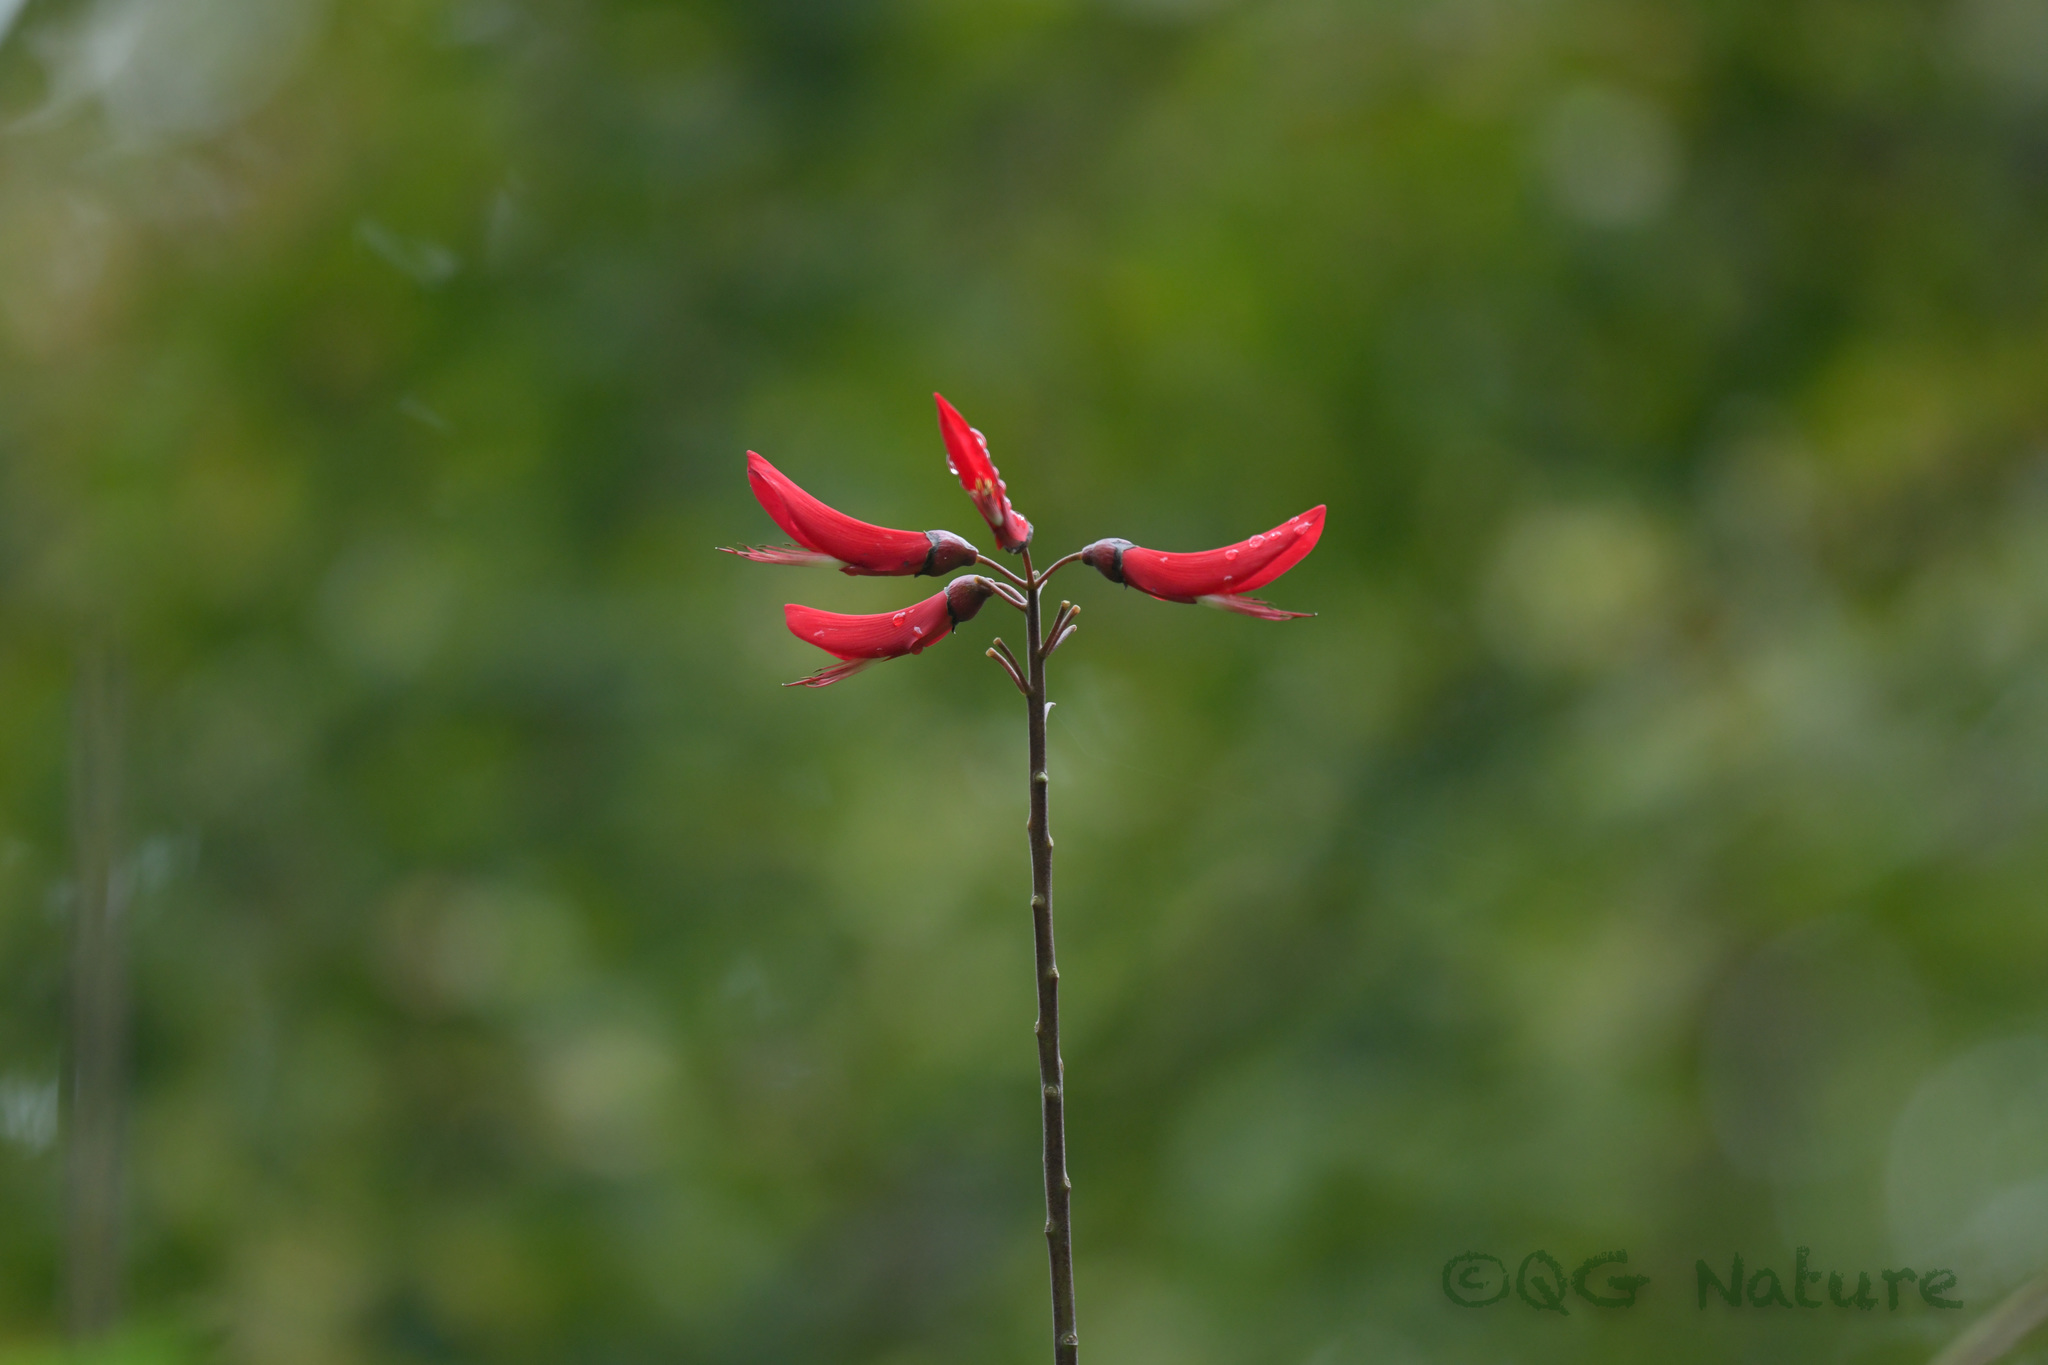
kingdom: Plantae
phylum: Tracheophyta
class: Magnoliopsida
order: Fabales
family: Fabaceae
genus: Erythrina
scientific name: Erythrina bidwillii
